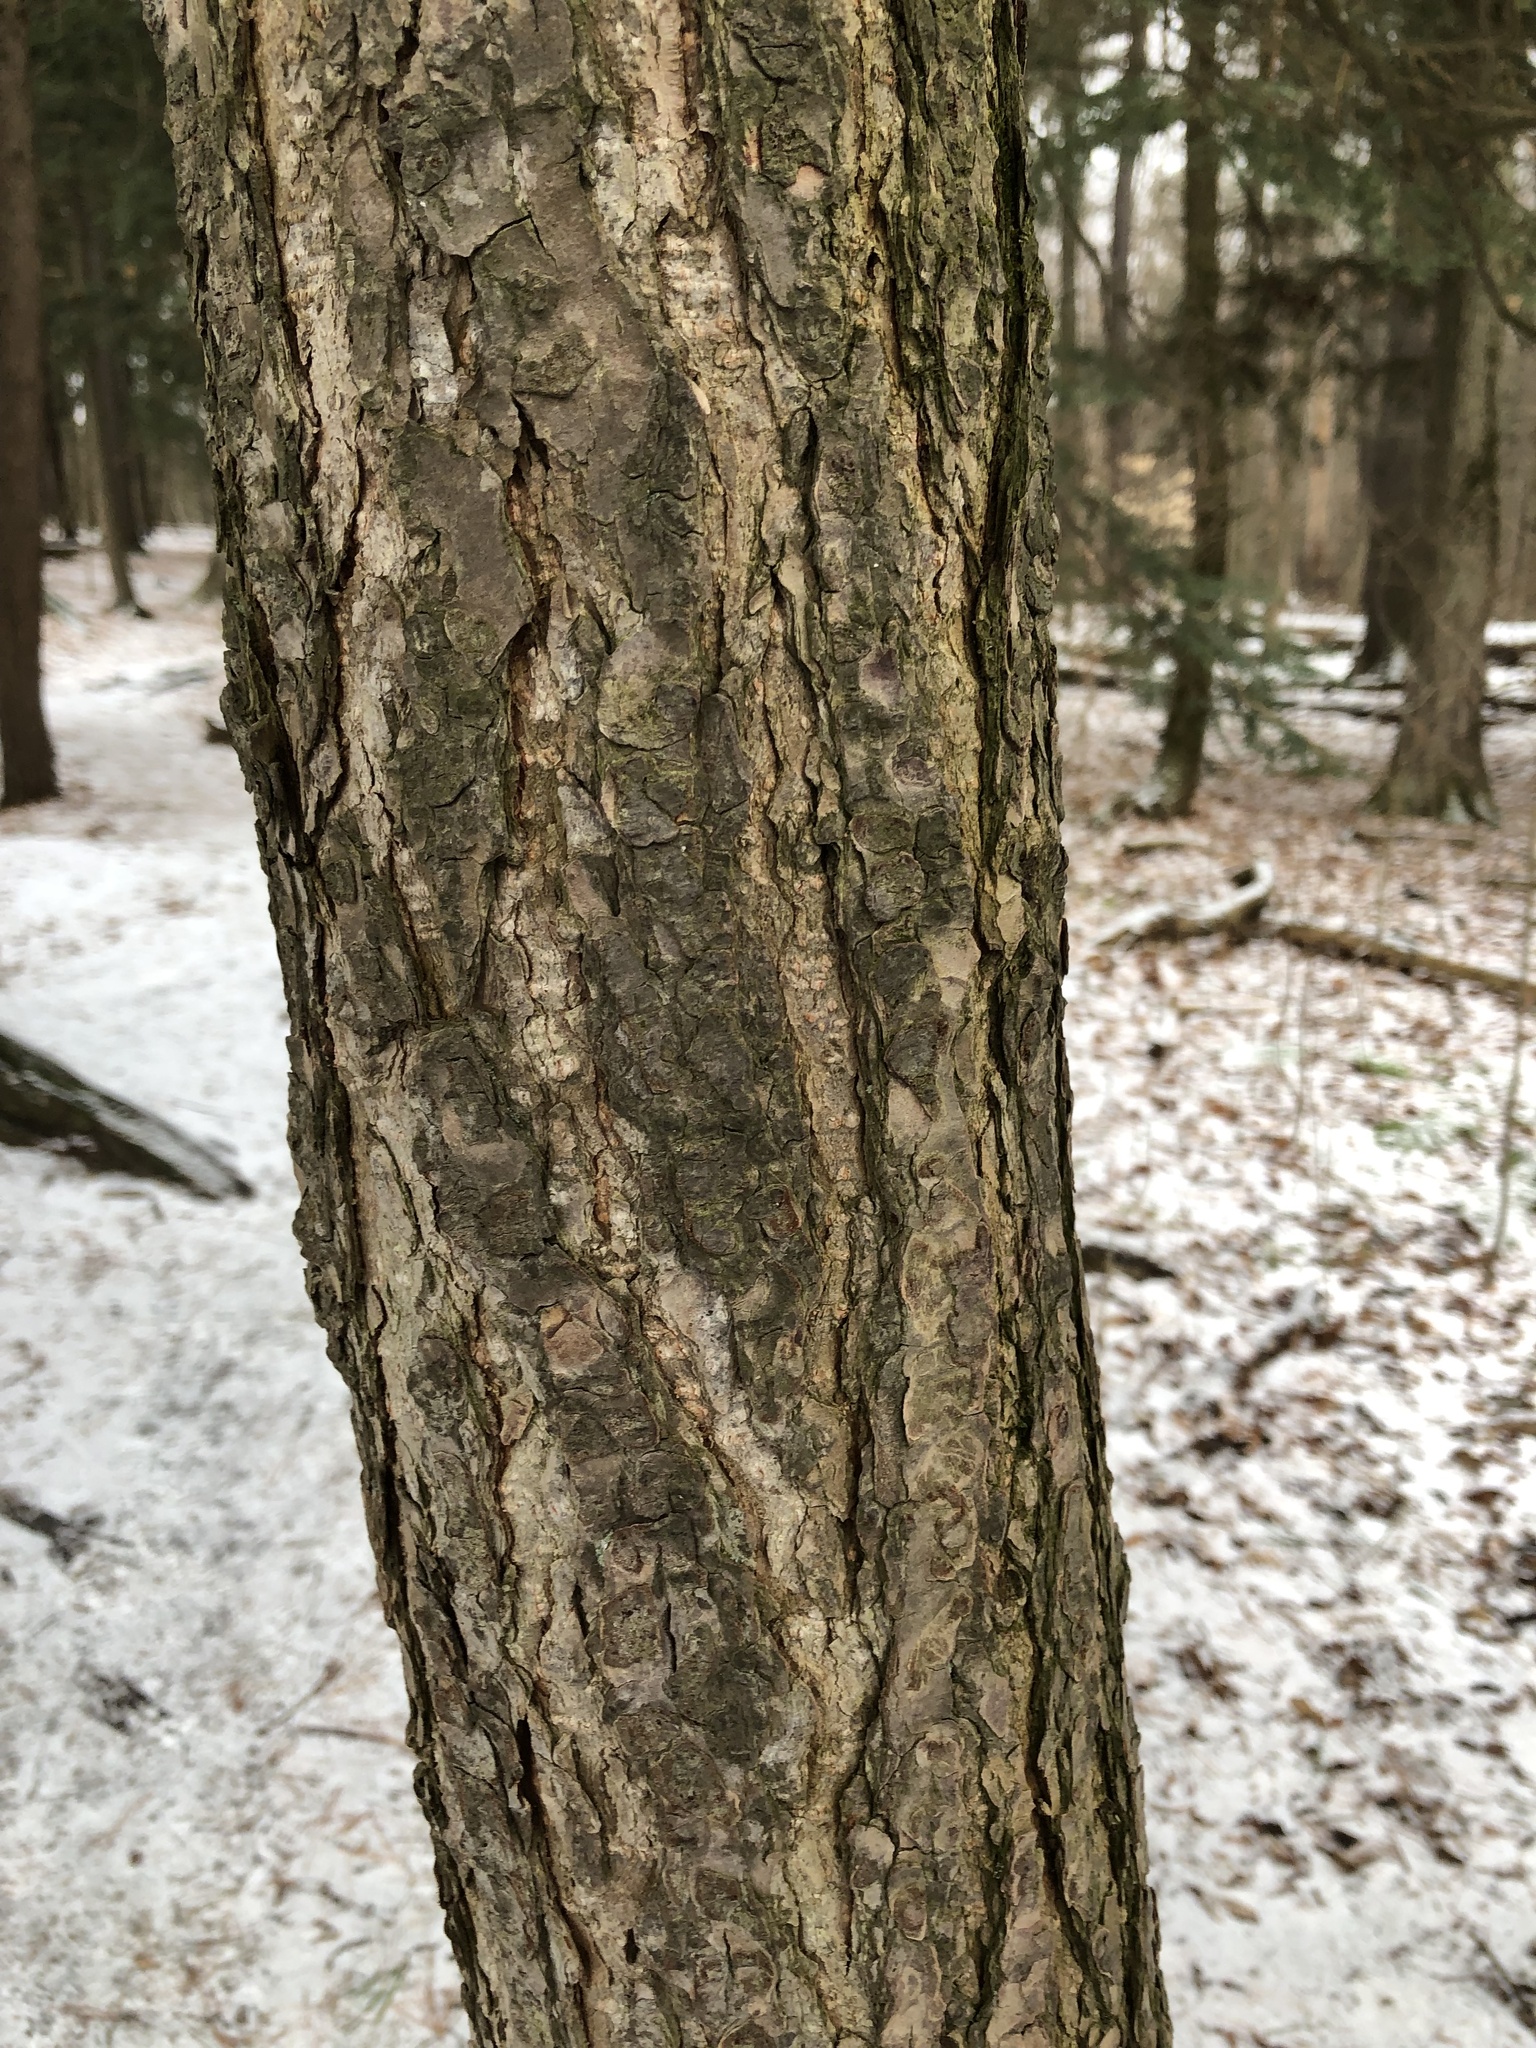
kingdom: Plantae
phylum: Tracheophyta
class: Pinopsida
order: Pinales
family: Pinaceae
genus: Tsuga
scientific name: Tsuga canadensis
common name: Eastern hemlock
